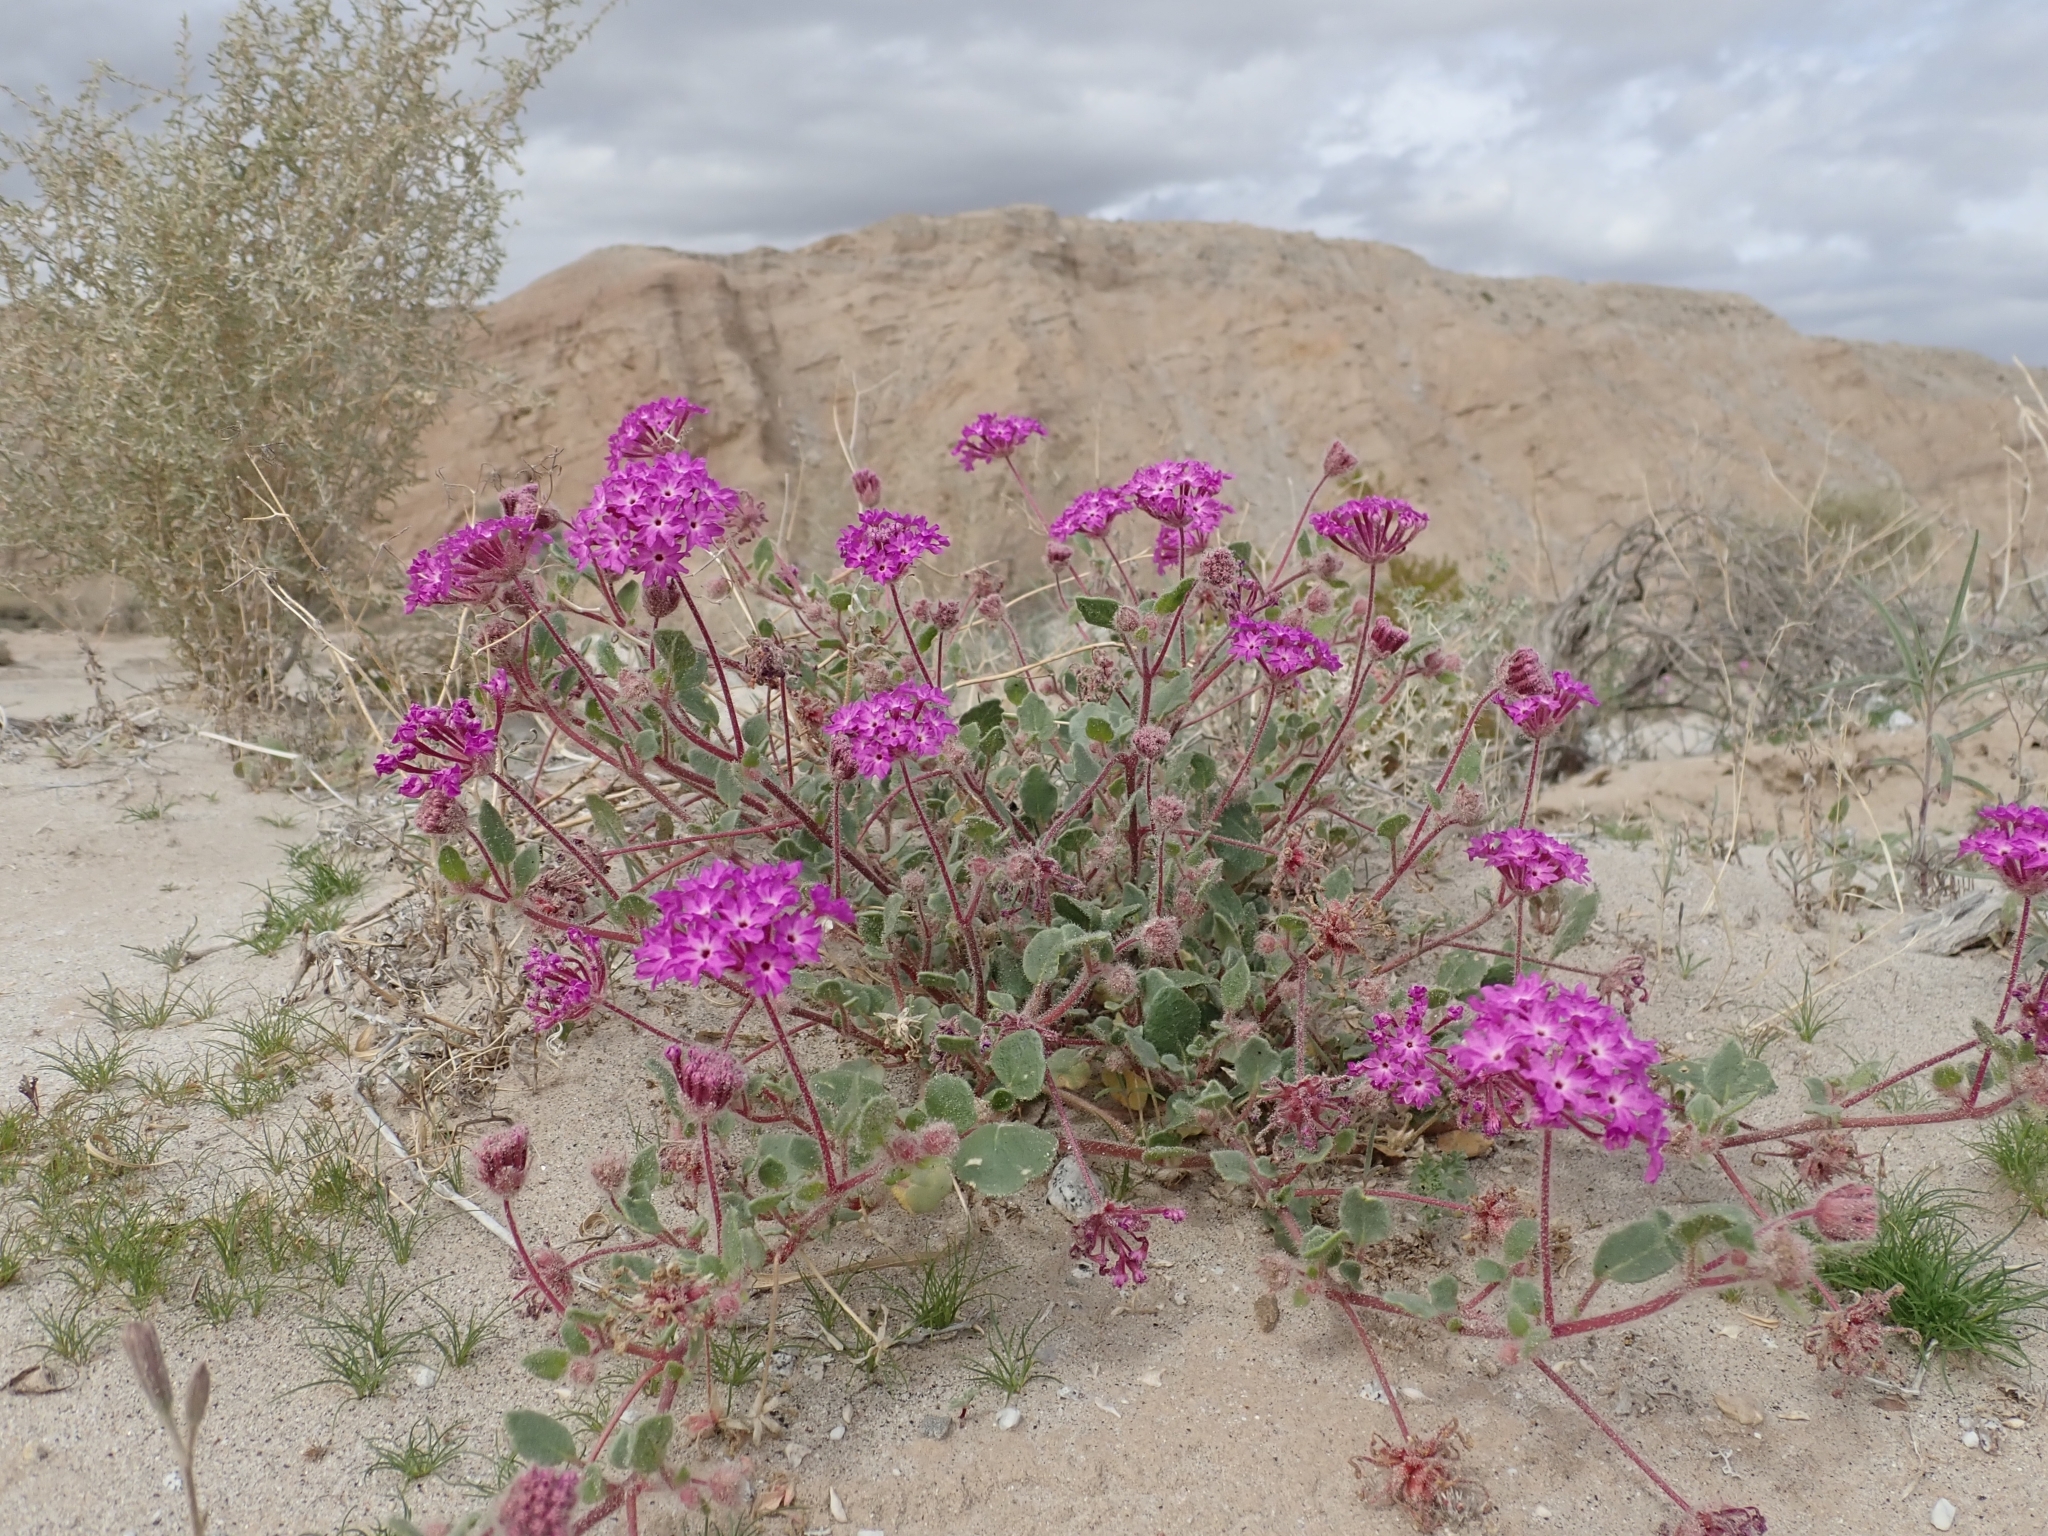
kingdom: Plantae
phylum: Tracheophyta
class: Magnoliopsida
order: Caryophyllales
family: Nyctaginaceae
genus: Abronia
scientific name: Abronia villosa
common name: Desert sand-verbena
